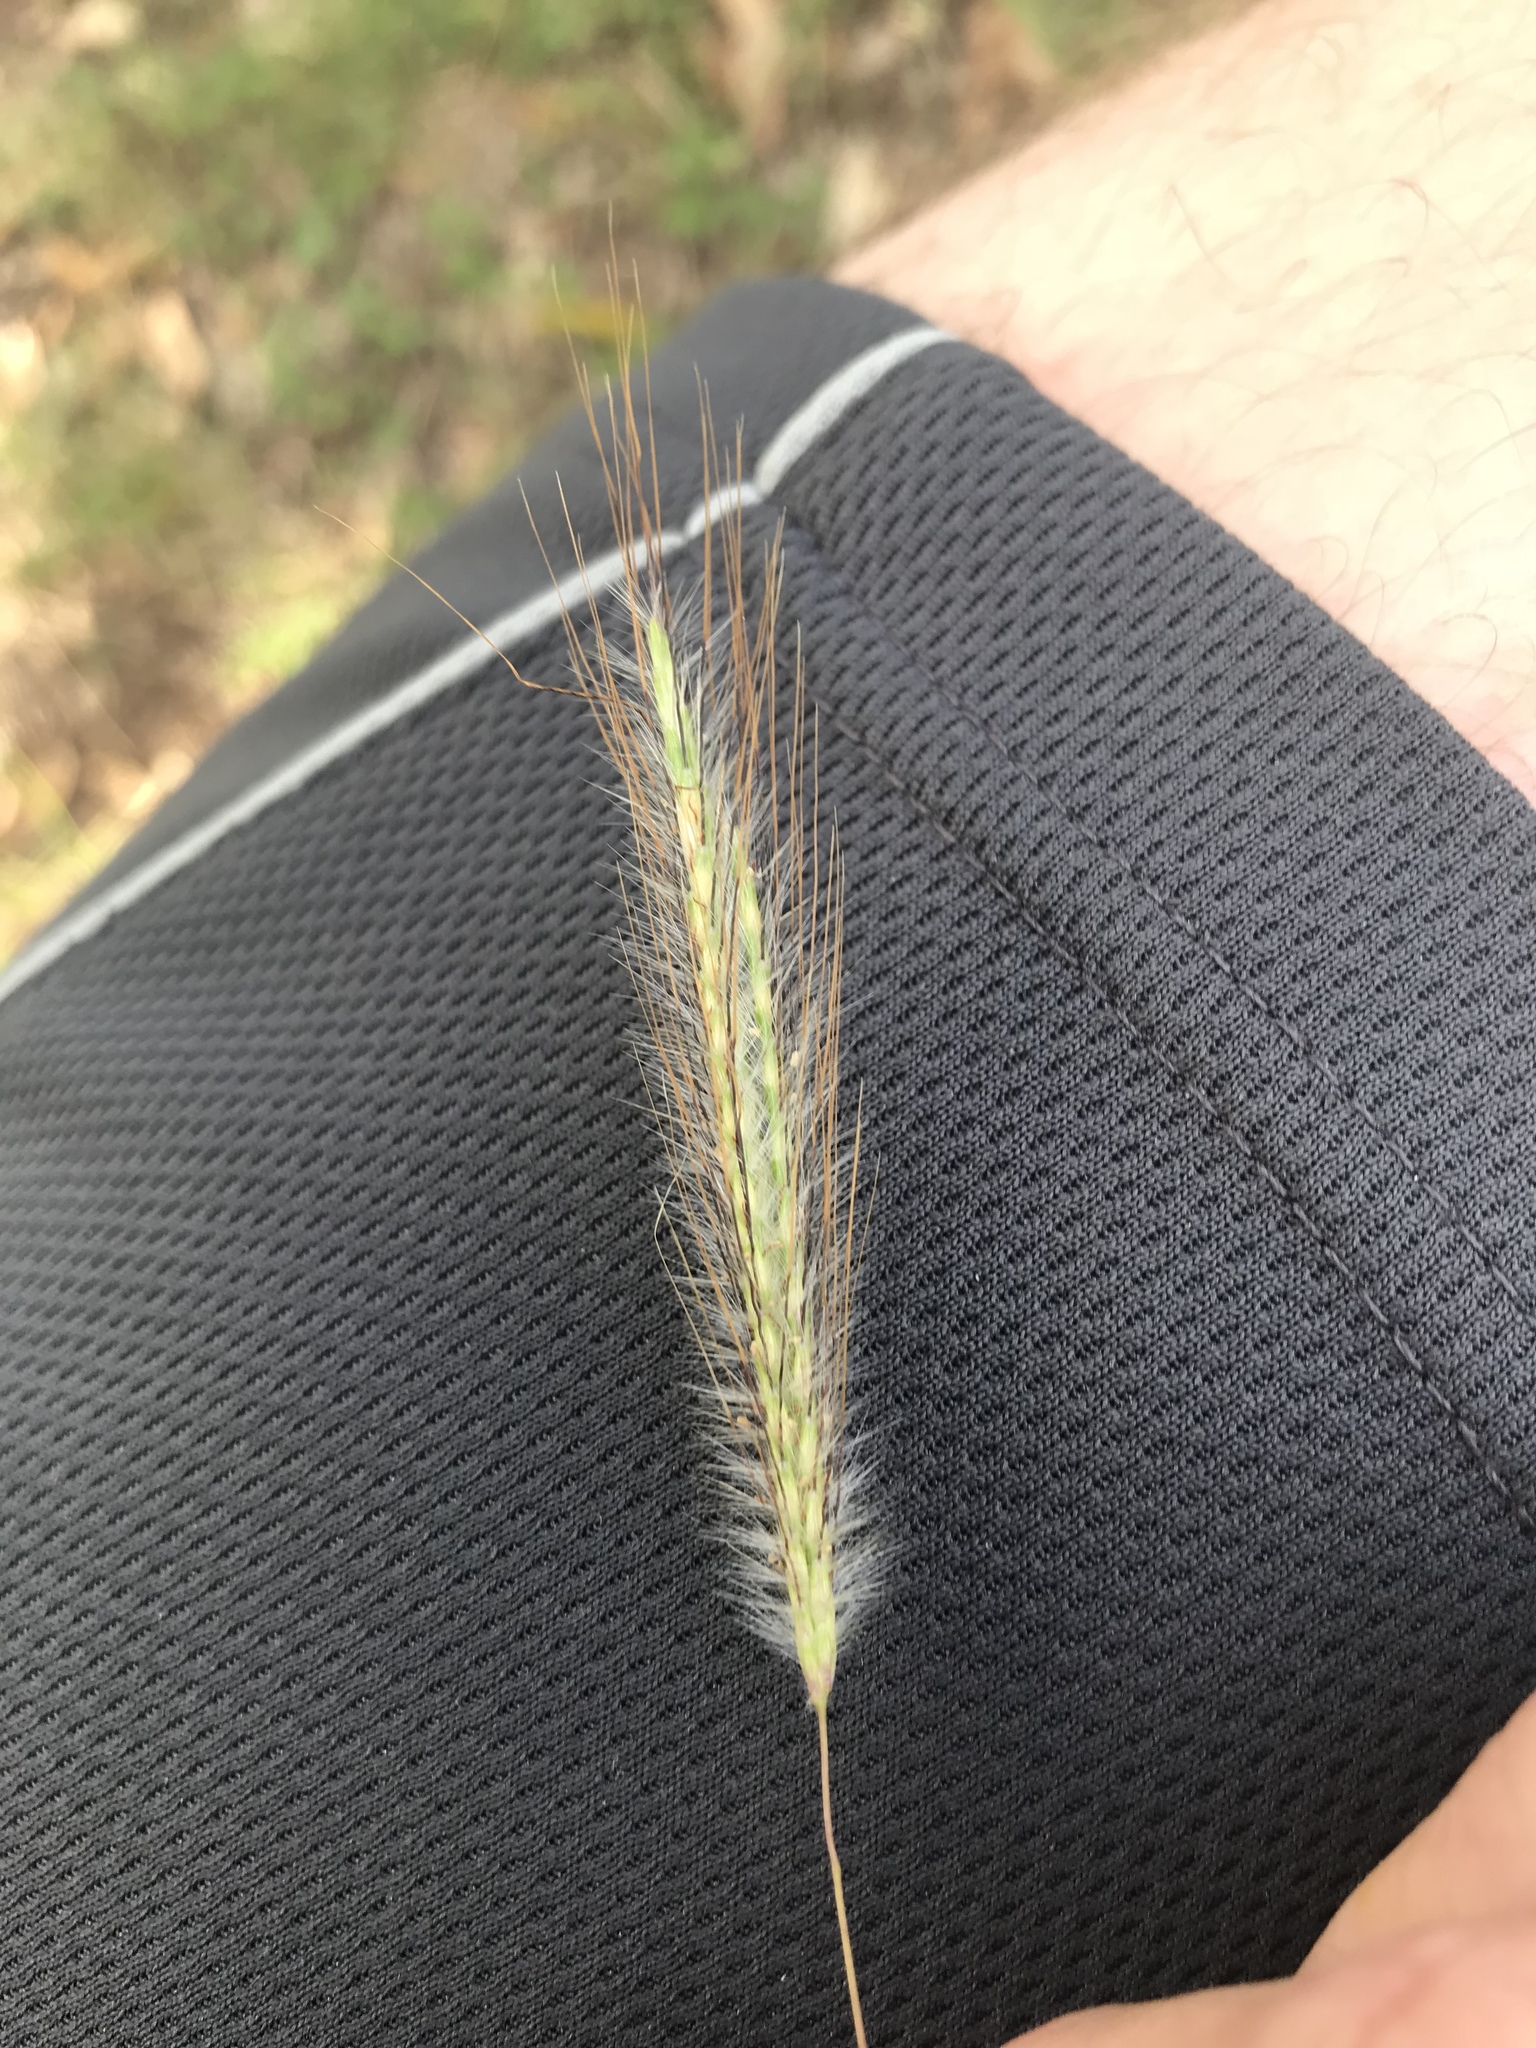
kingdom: Plantae
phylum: Tracheophyta
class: Liliopsida
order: Poales
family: Poaceae
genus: Dichanthium
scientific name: Dichanthium sericeum
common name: Silky bluestem
